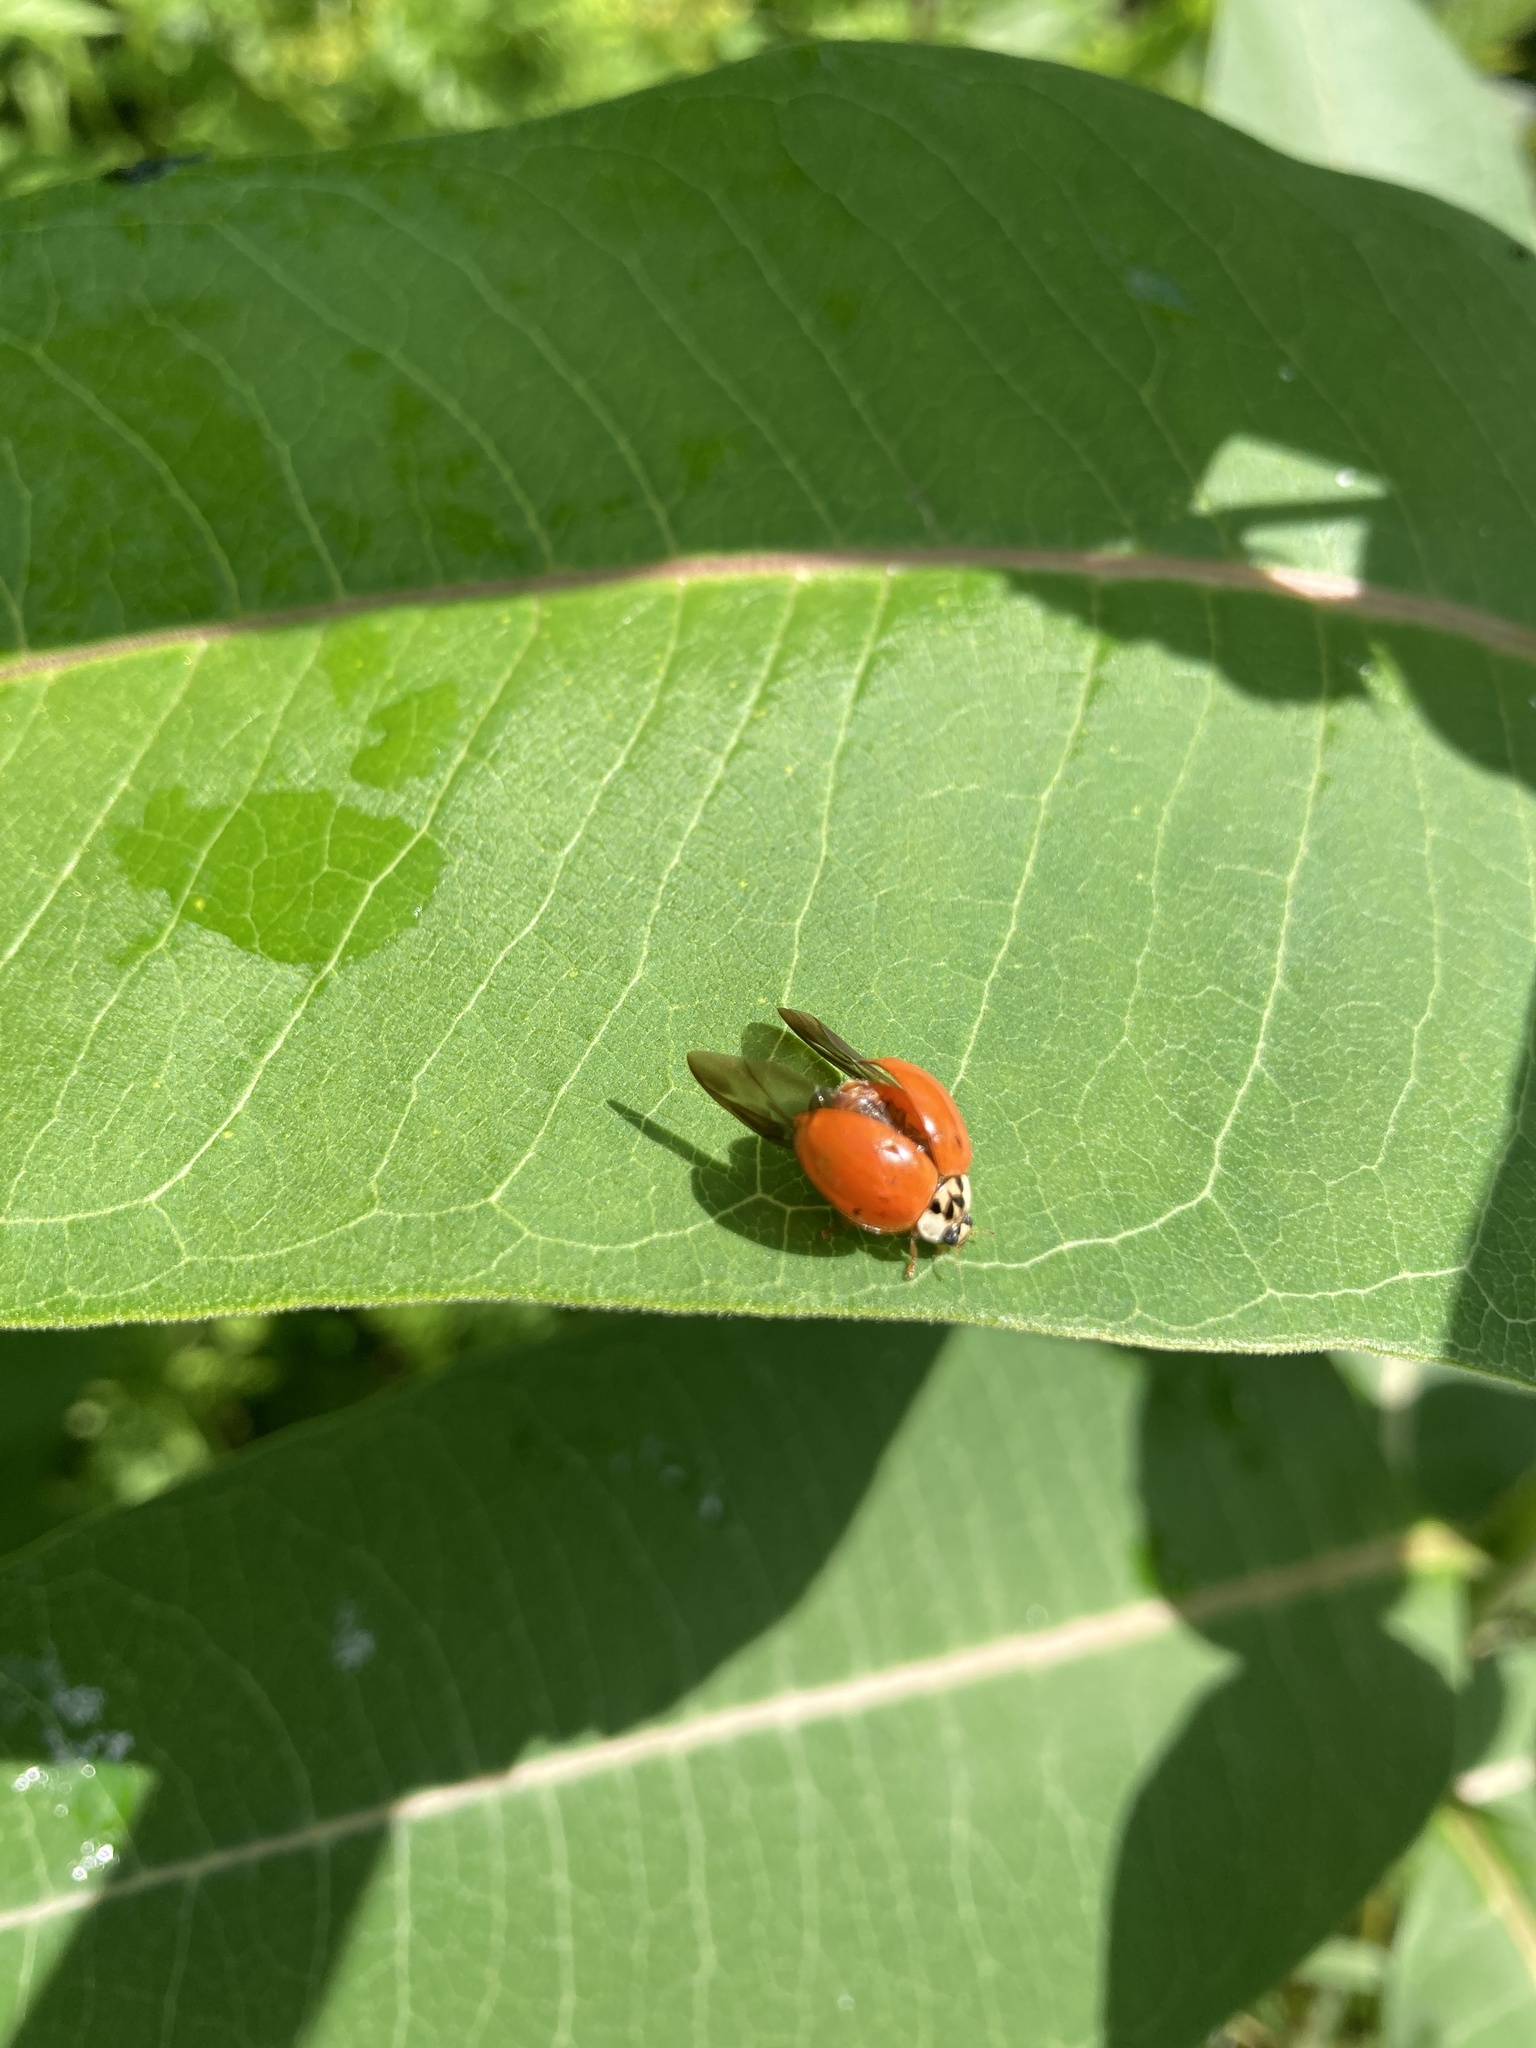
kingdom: Animalia
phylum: Arthropoda
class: Insecta
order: Coleoptera
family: Coccinellidae
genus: Harmonia
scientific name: Harmonia axyridis
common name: Harlequin ladybird
